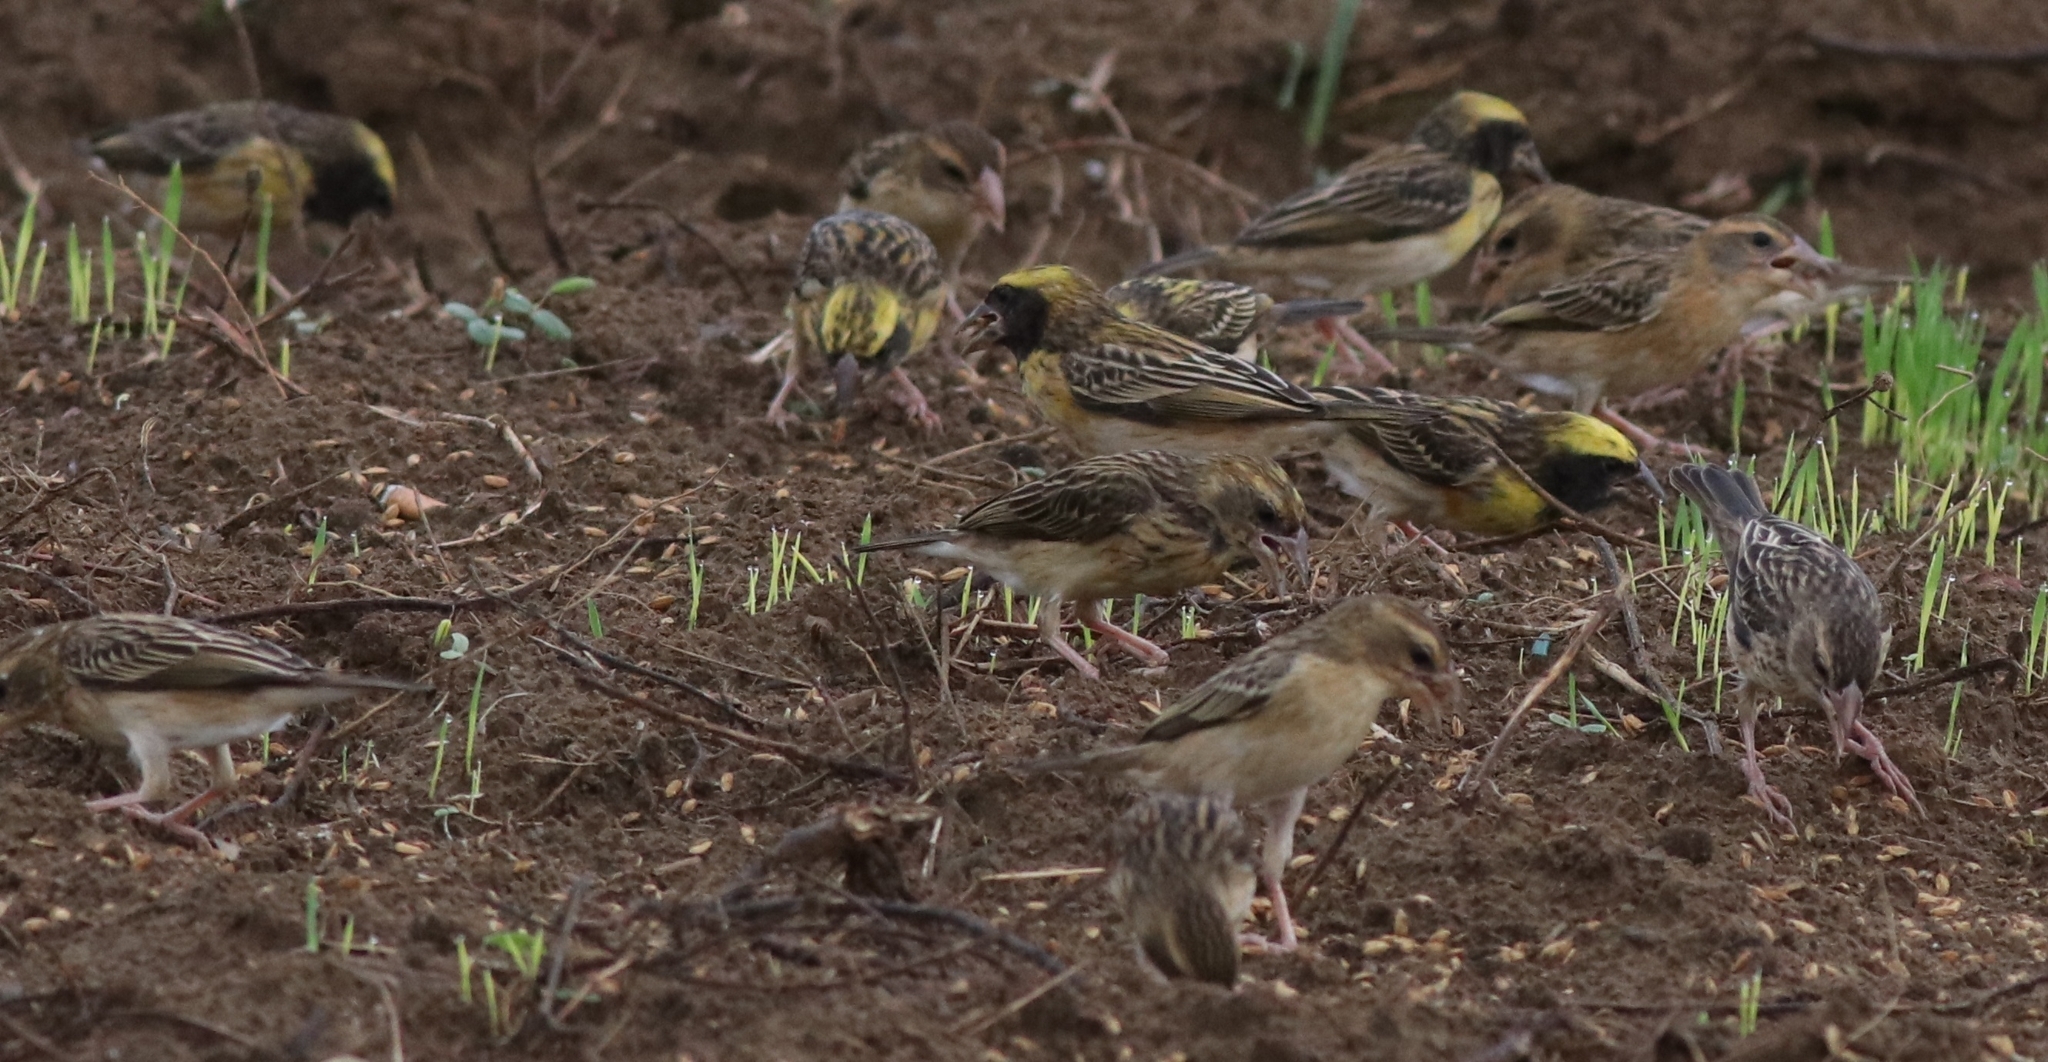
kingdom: Animalia
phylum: Chordata
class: Aves
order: Passeriformes
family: Ploceidae
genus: Ploceus
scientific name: Ploceus philippinus
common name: Baya weaver
